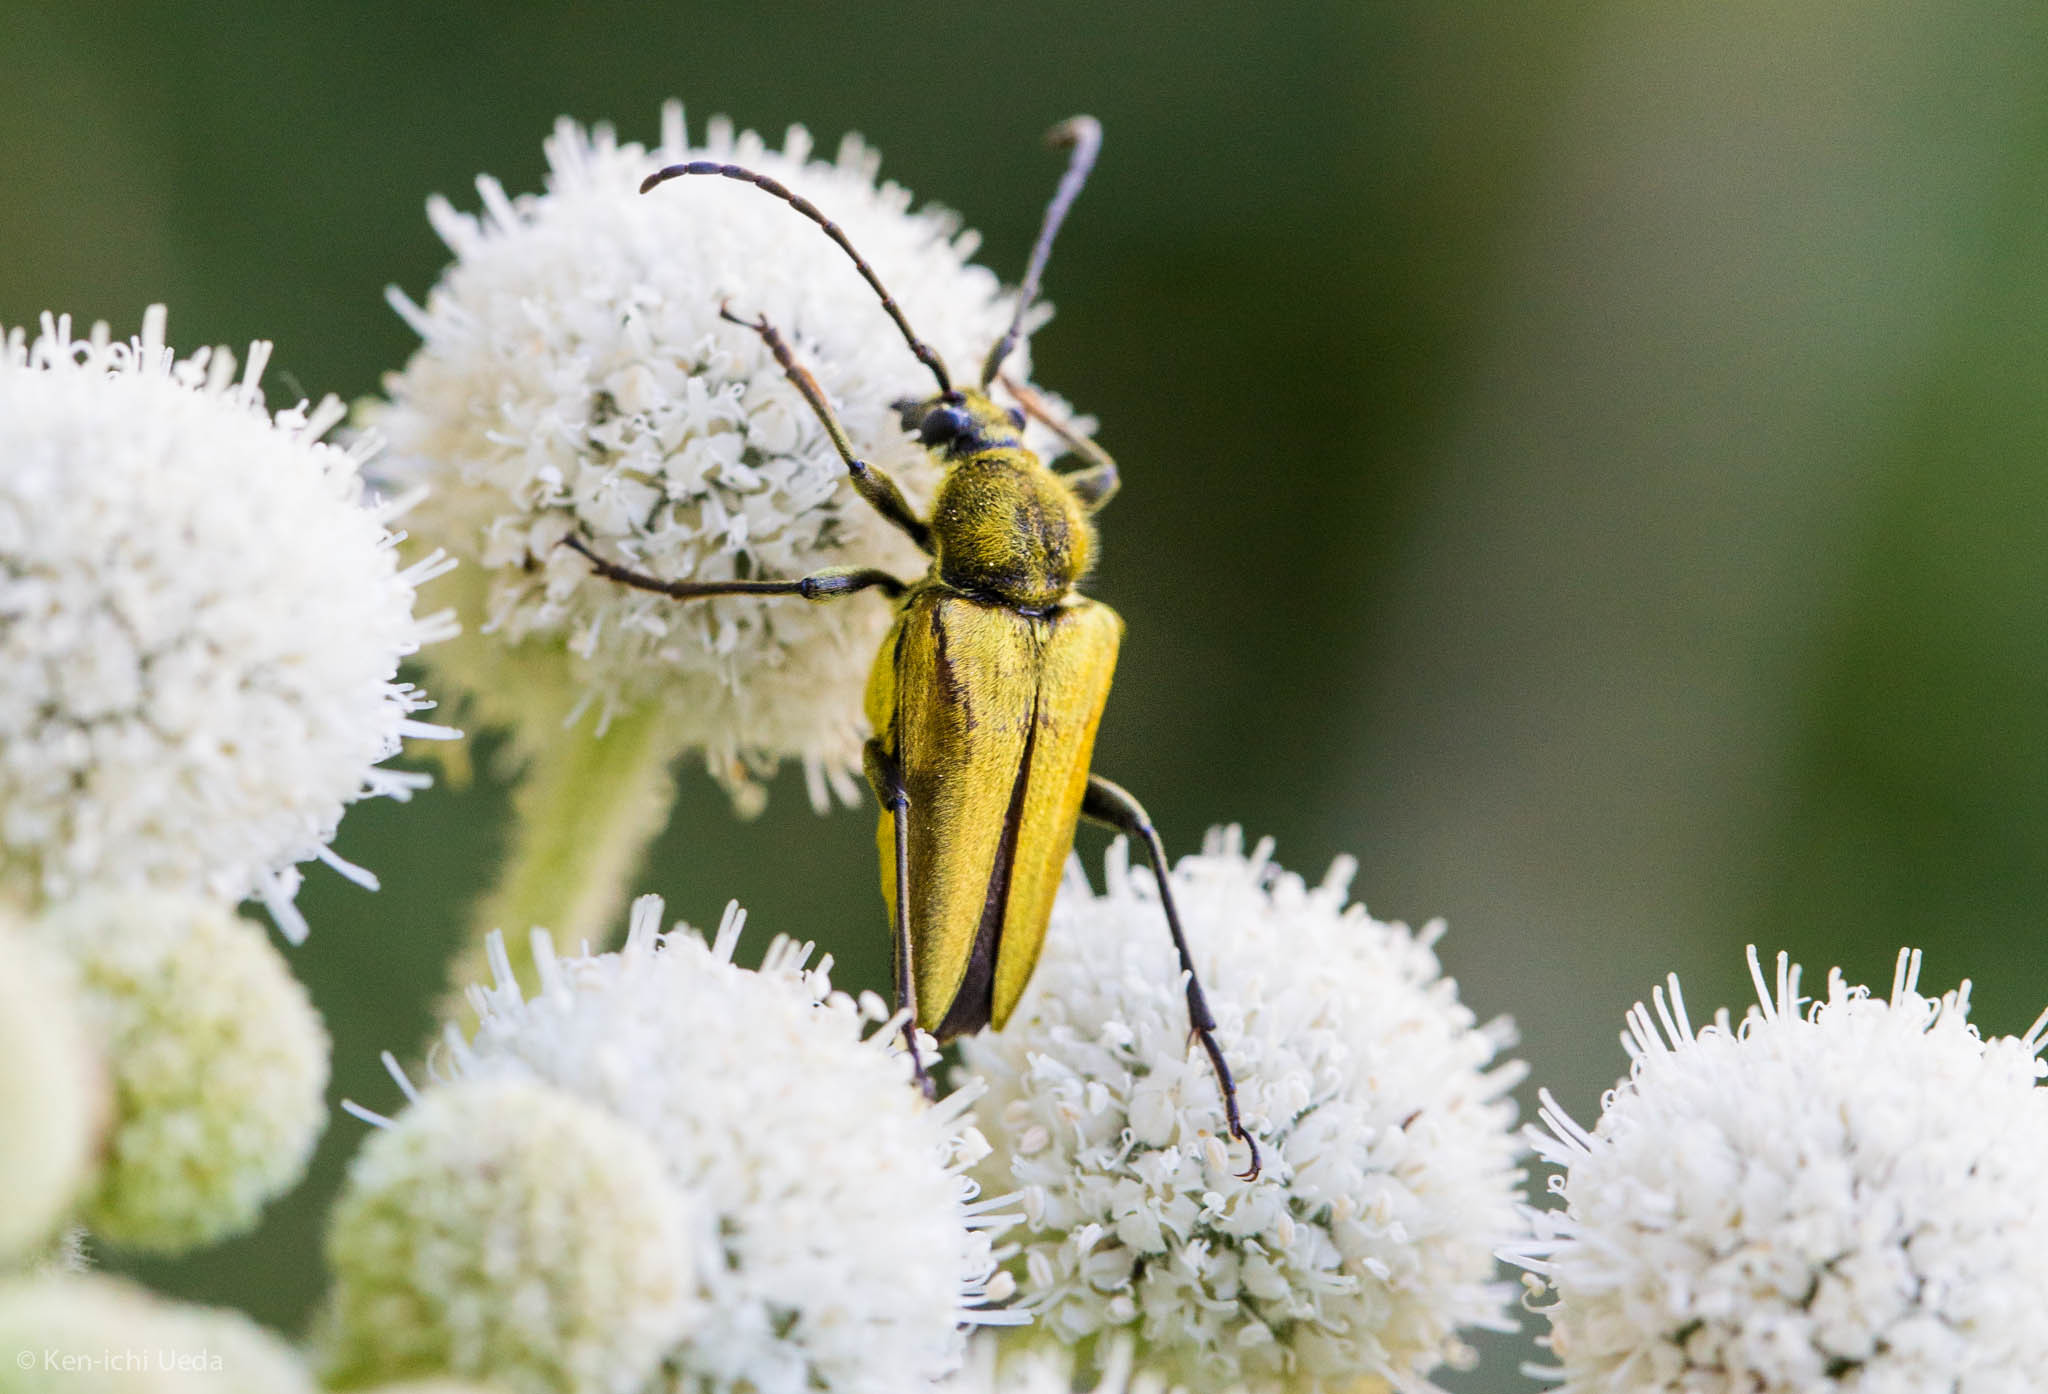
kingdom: Animalia
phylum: Arthropoda
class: Insecta
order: Coleoptera
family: Cerambycidae
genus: Cosmosalia
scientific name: Cosmosalia chrysocoma
